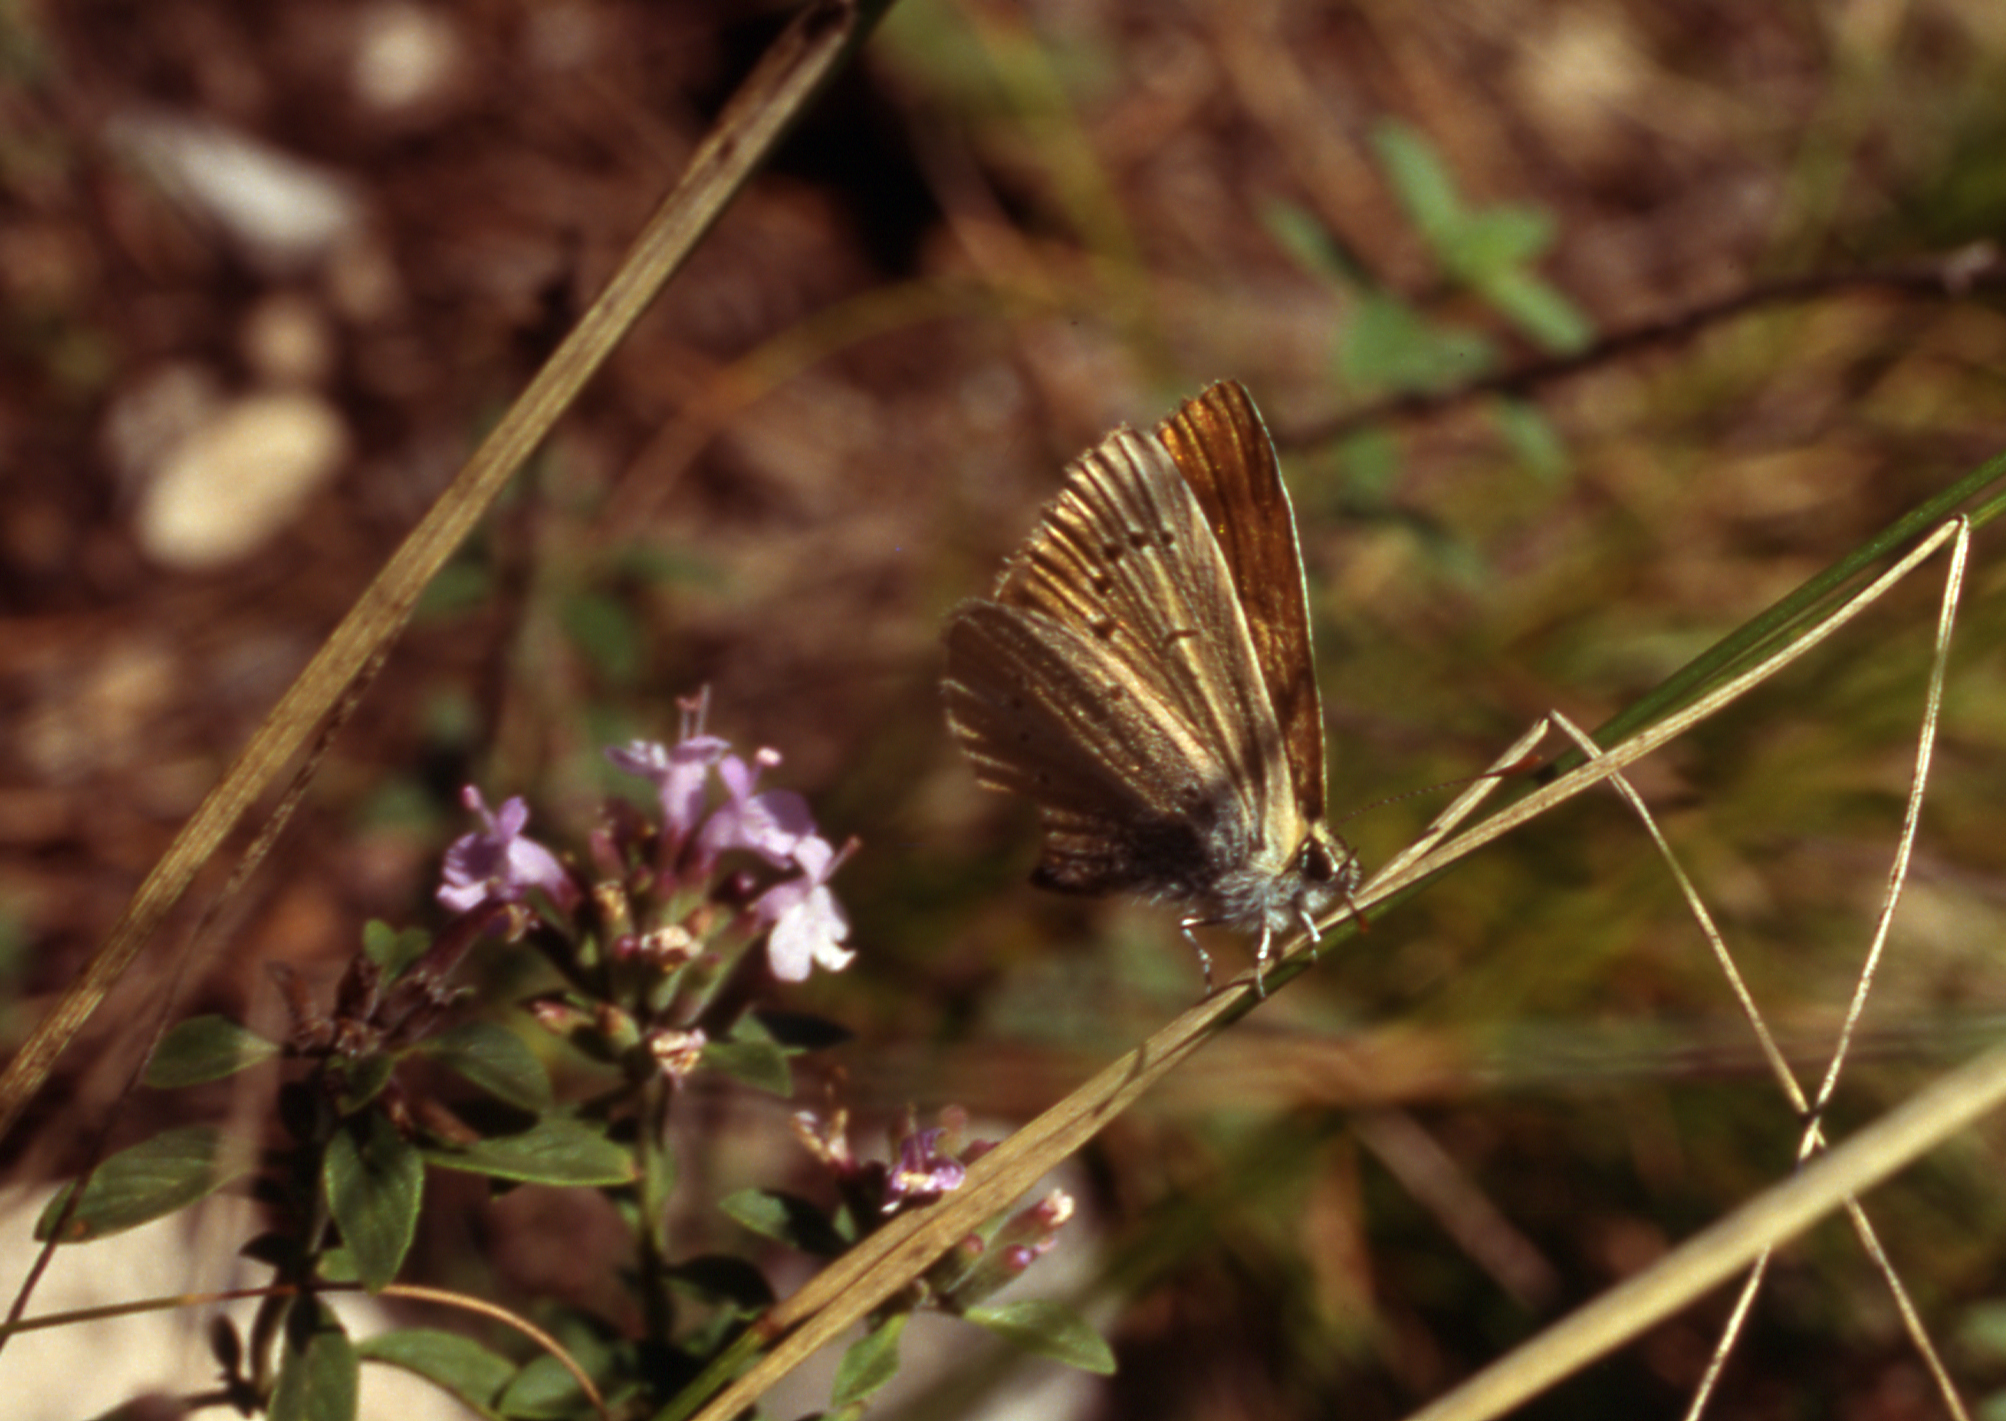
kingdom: Plantae
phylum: Tracheophyta
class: Magnoliopsida
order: Lamiales
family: Lamiaceae
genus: Ziziphora
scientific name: Ziziphora clinopodioides
